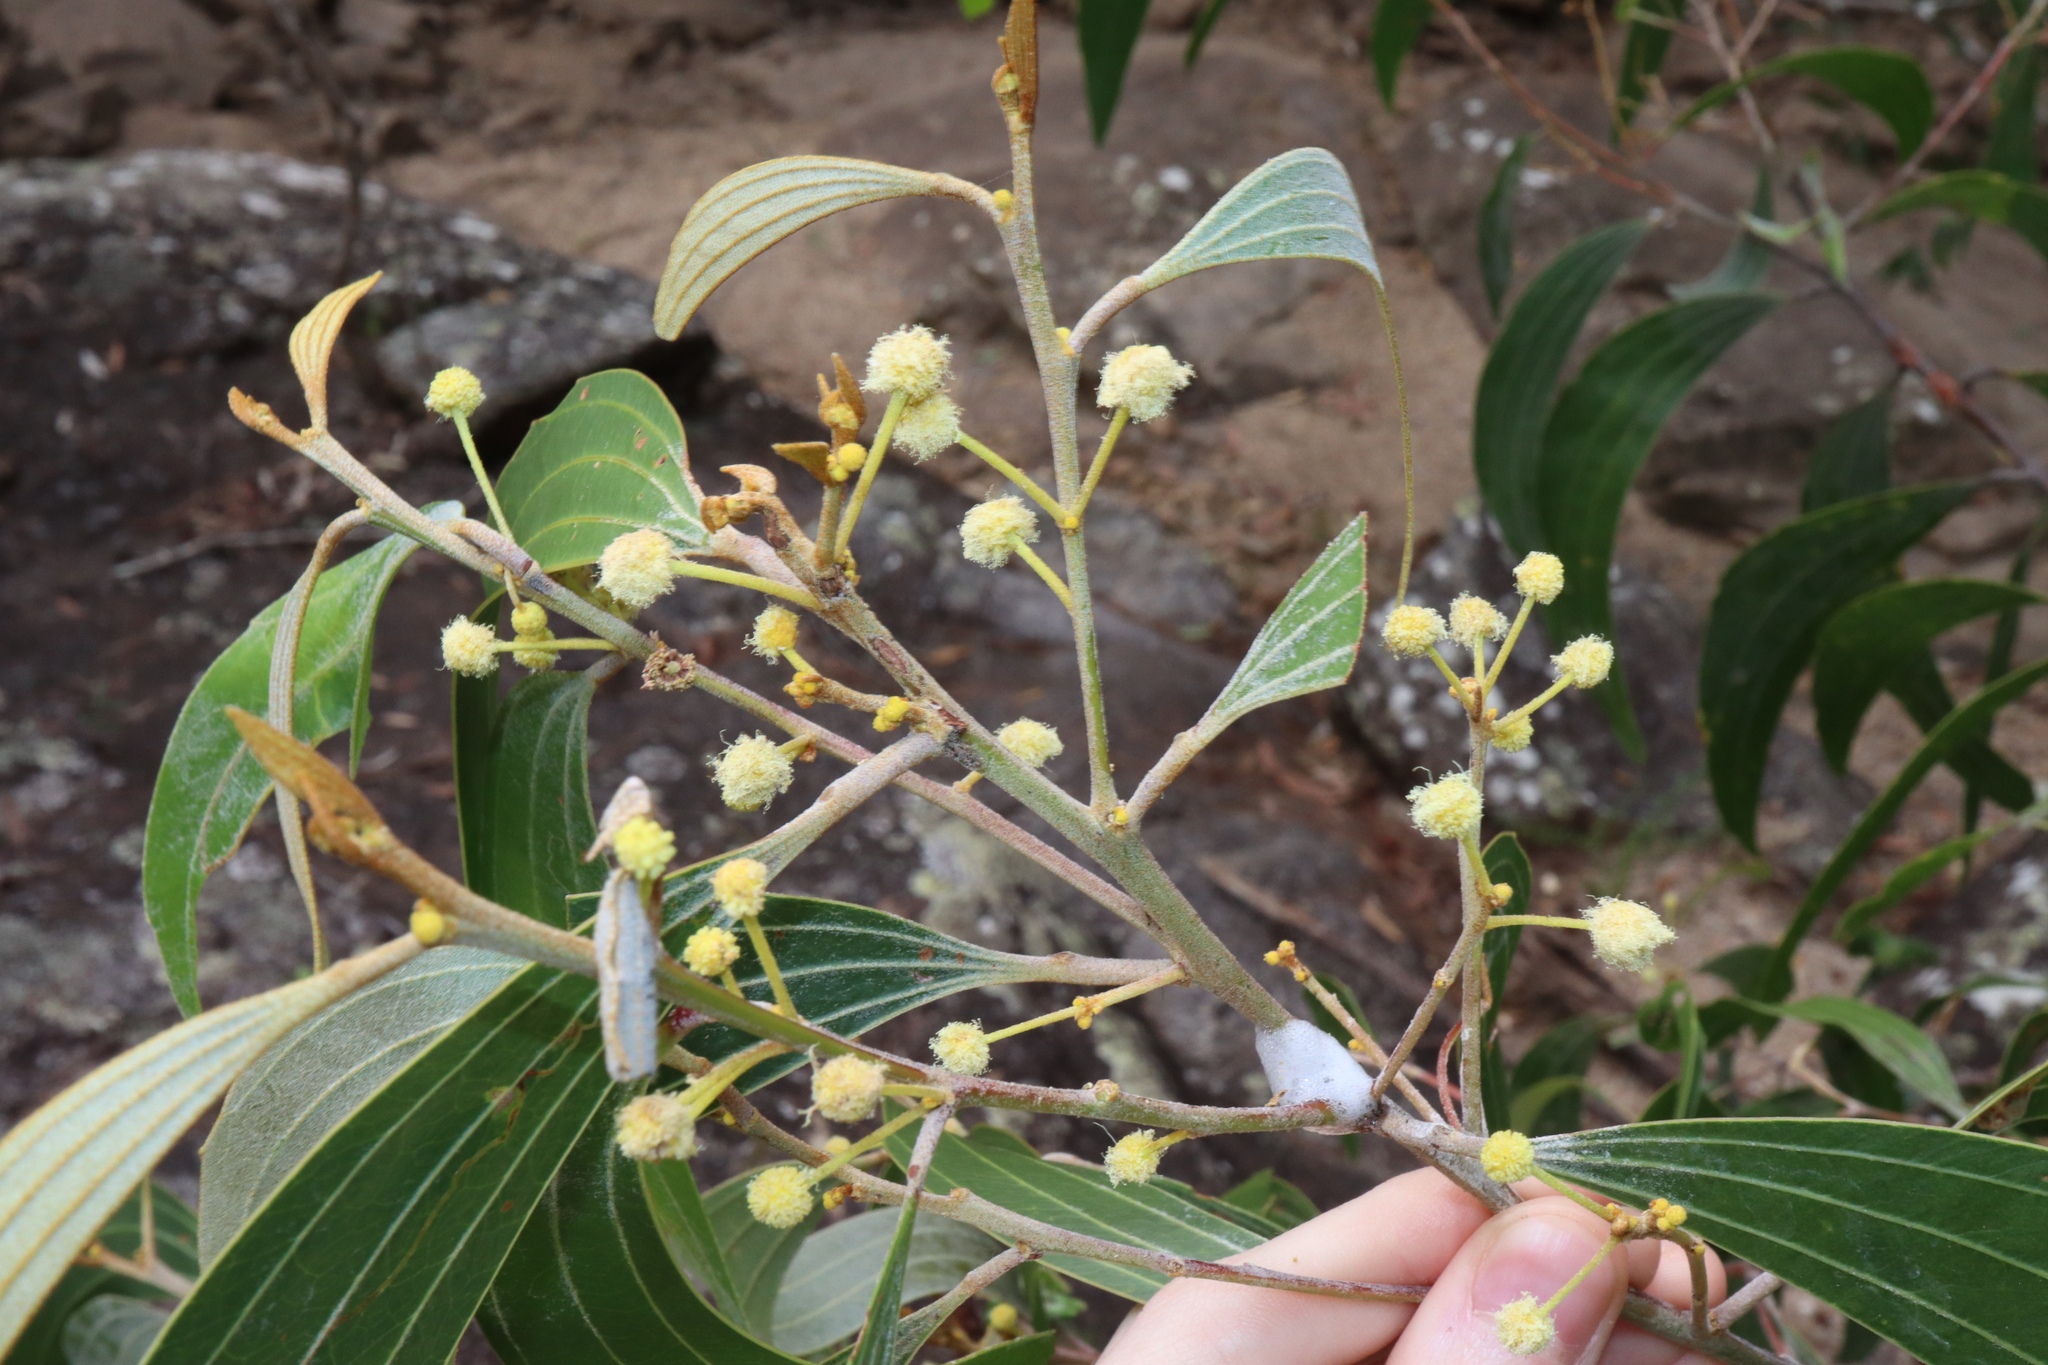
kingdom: Plantae
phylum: Tracheophyta
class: Magnoliopsida
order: Fabales
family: Fabaceae
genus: Acacia
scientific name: Acacia flavescens
